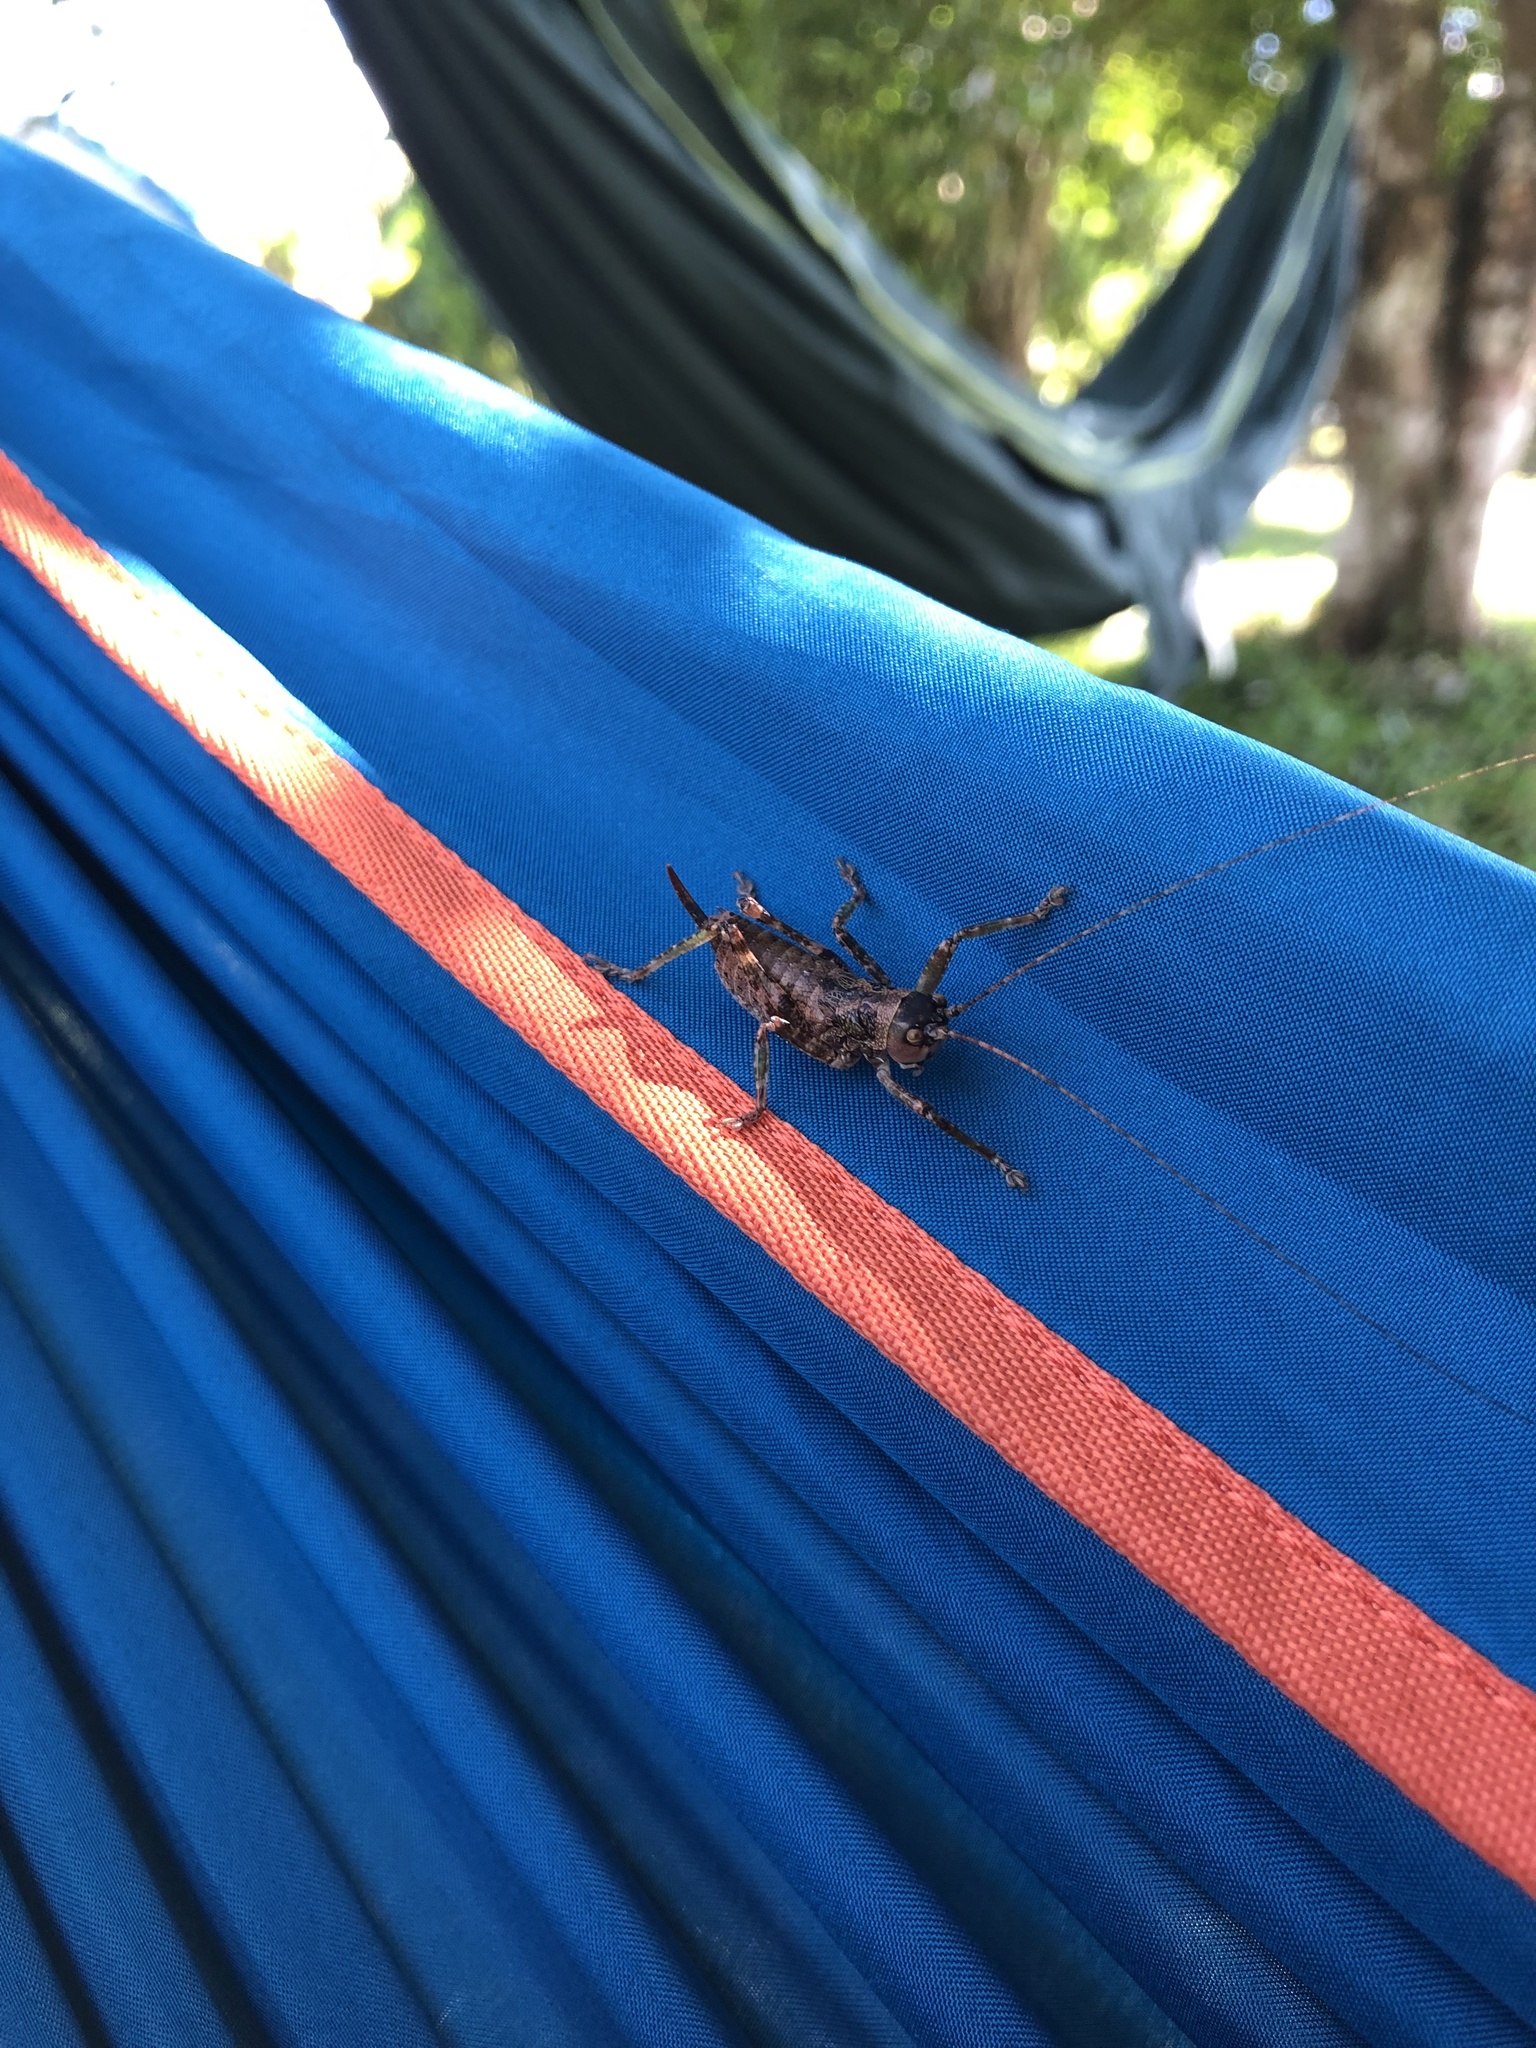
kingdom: Animalia
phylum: Arthropoda
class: Insecta
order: Orthoptera
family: Tettigoniidae
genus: Nesoecia
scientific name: Nesoecia cooksonii
